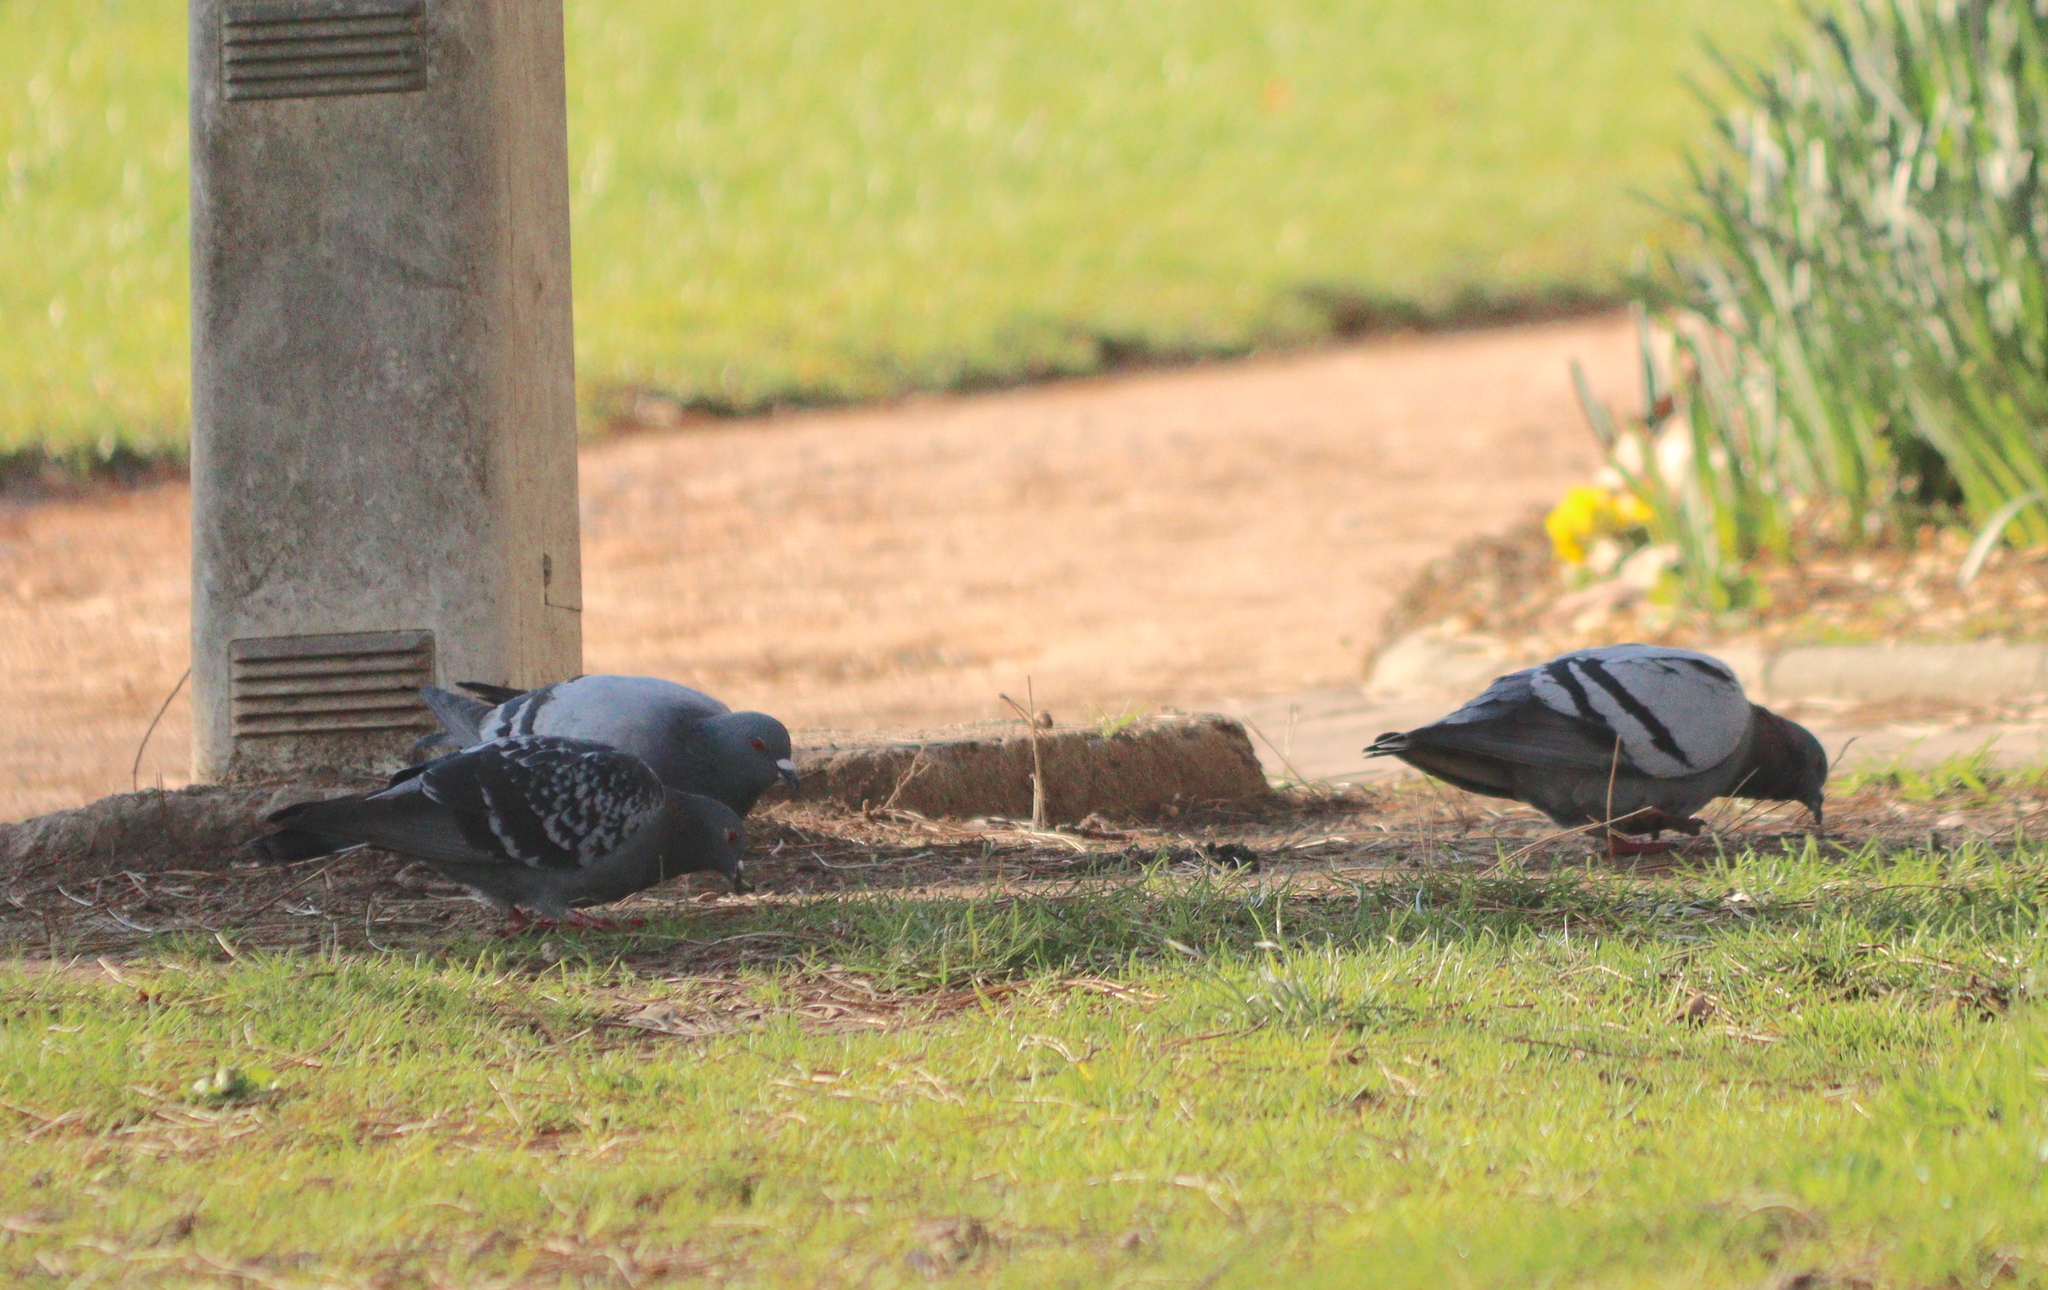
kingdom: Animalia
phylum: Chordata
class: Aves
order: Columbiformes
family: Columbidae
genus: Columba
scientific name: Columba livia
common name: Rock pigeon
